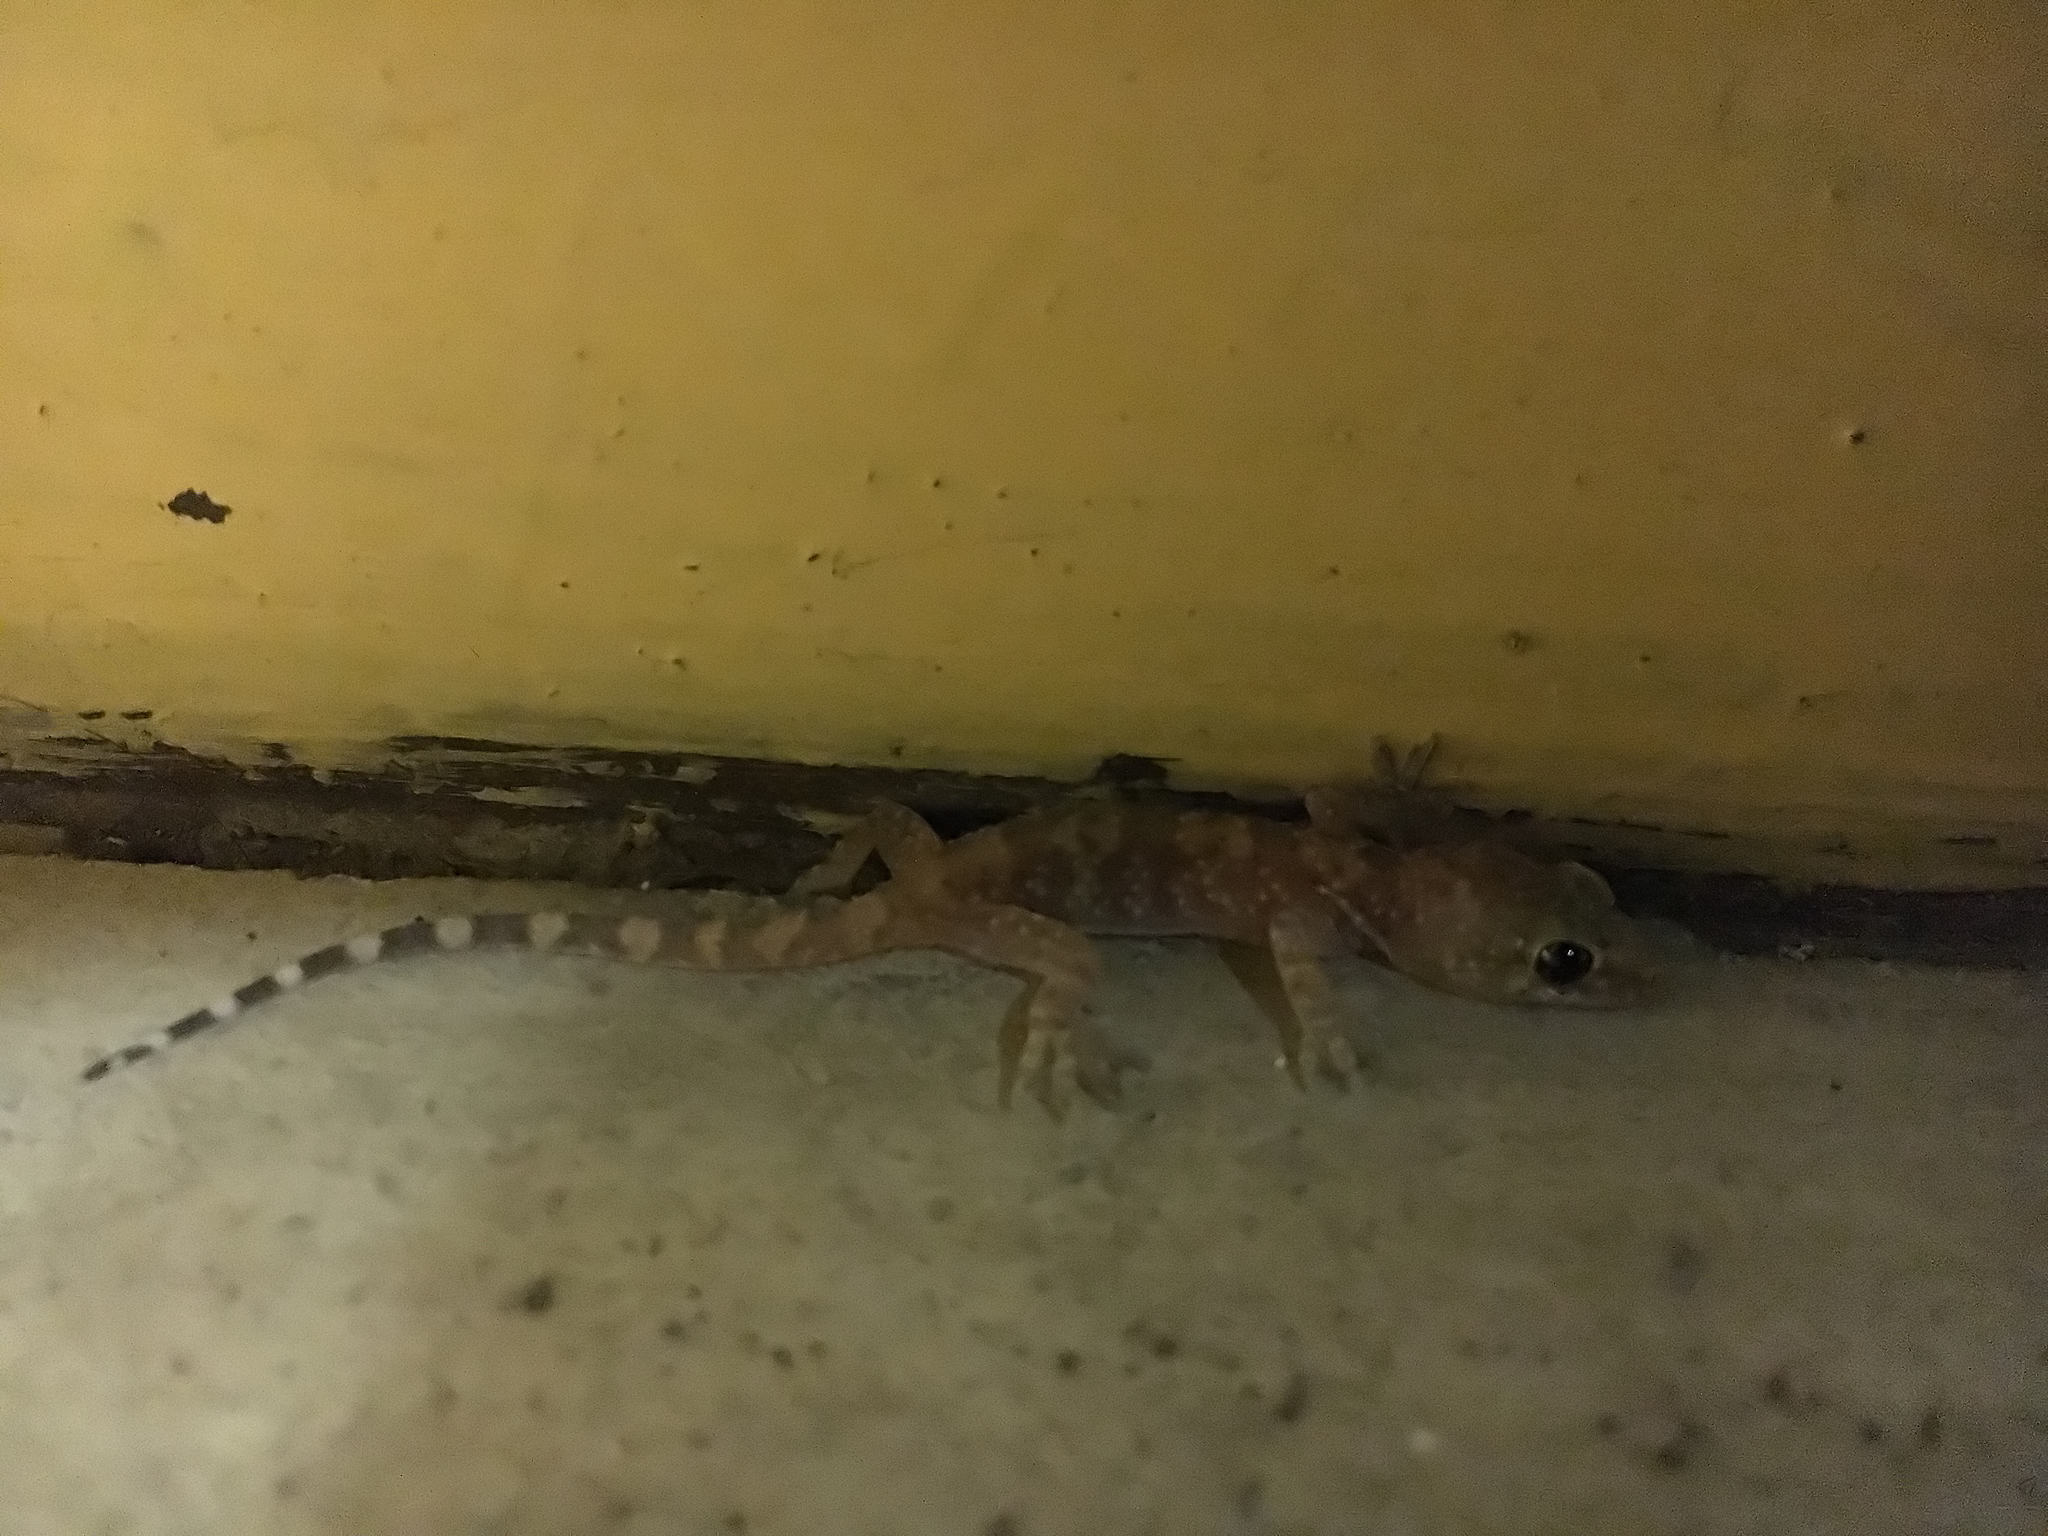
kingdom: Animalia
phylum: Chordata
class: Squamata
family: Gekkonidae
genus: Hemidactylus
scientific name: Hemidactylus turcicus
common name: Turkish gecko
